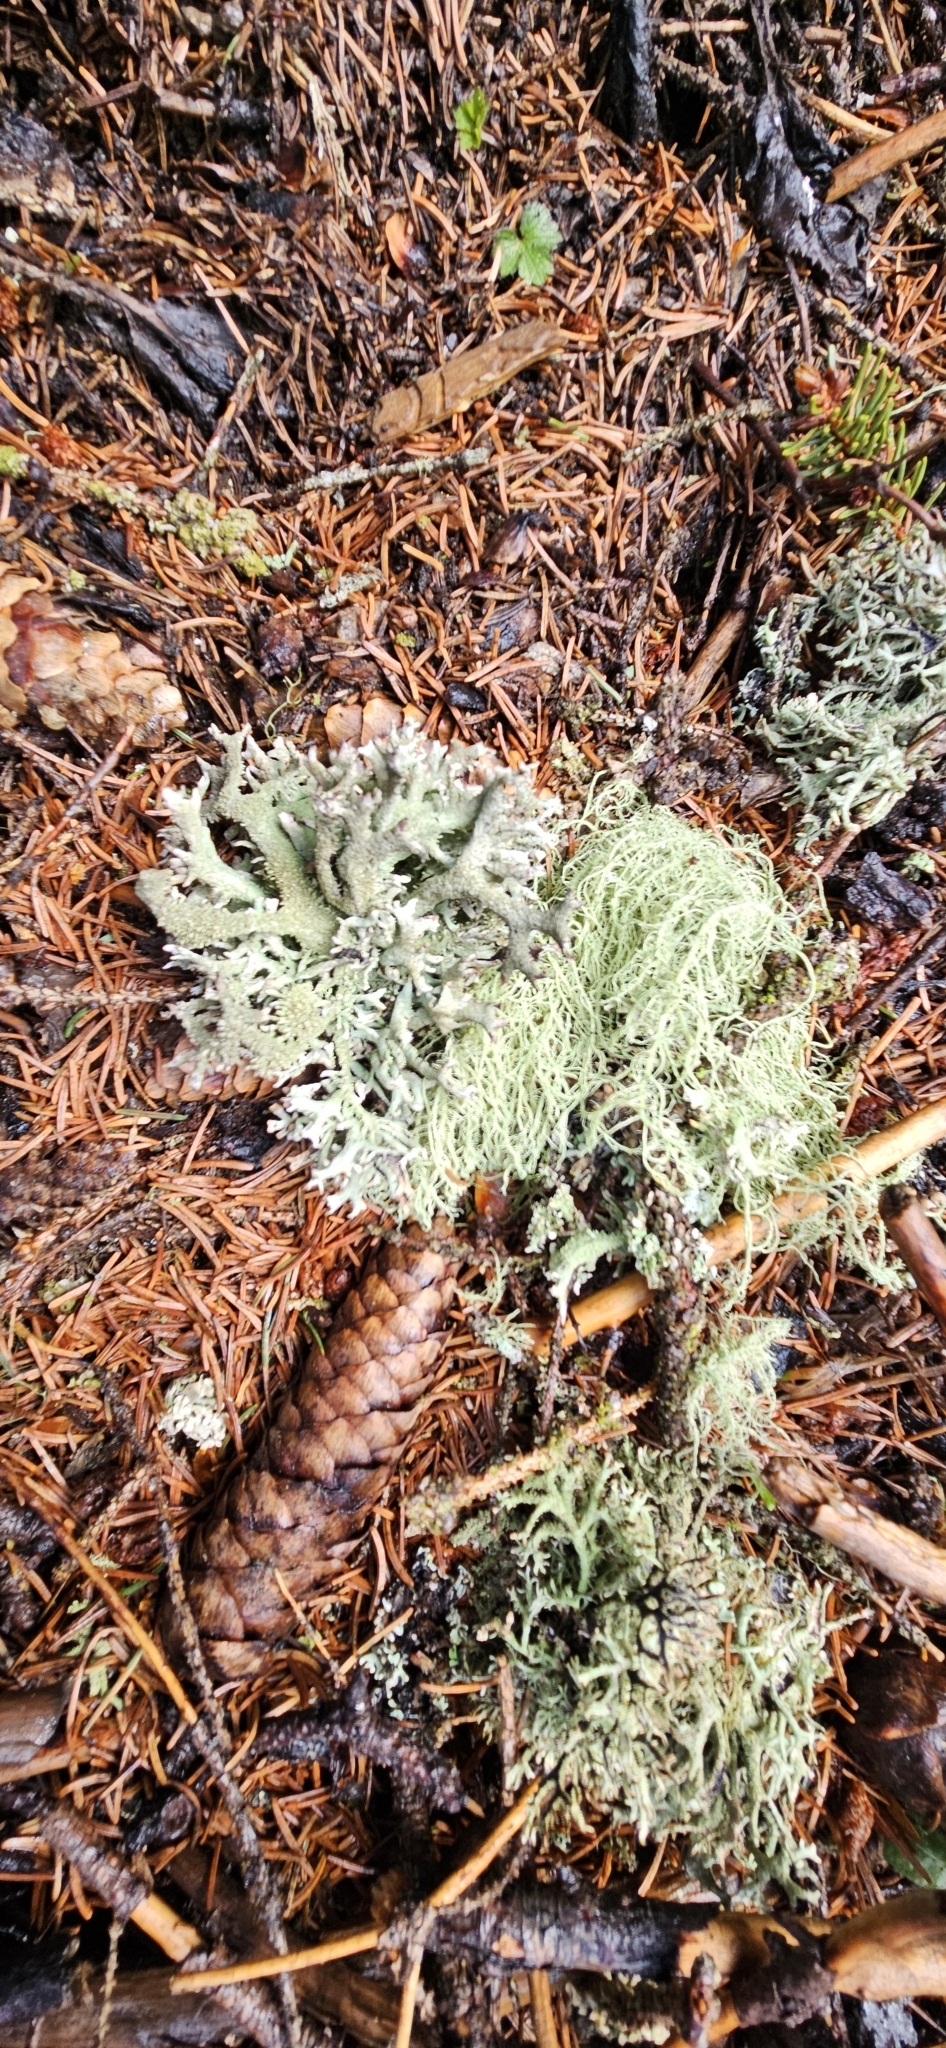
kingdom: Fungi
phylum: Ascomycota
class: Lecanoromycetes
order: Lecanorales
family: Parmeliaceae
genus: Pseudevernia
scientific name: Pseudevernia furfuracea
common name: Tree moss
